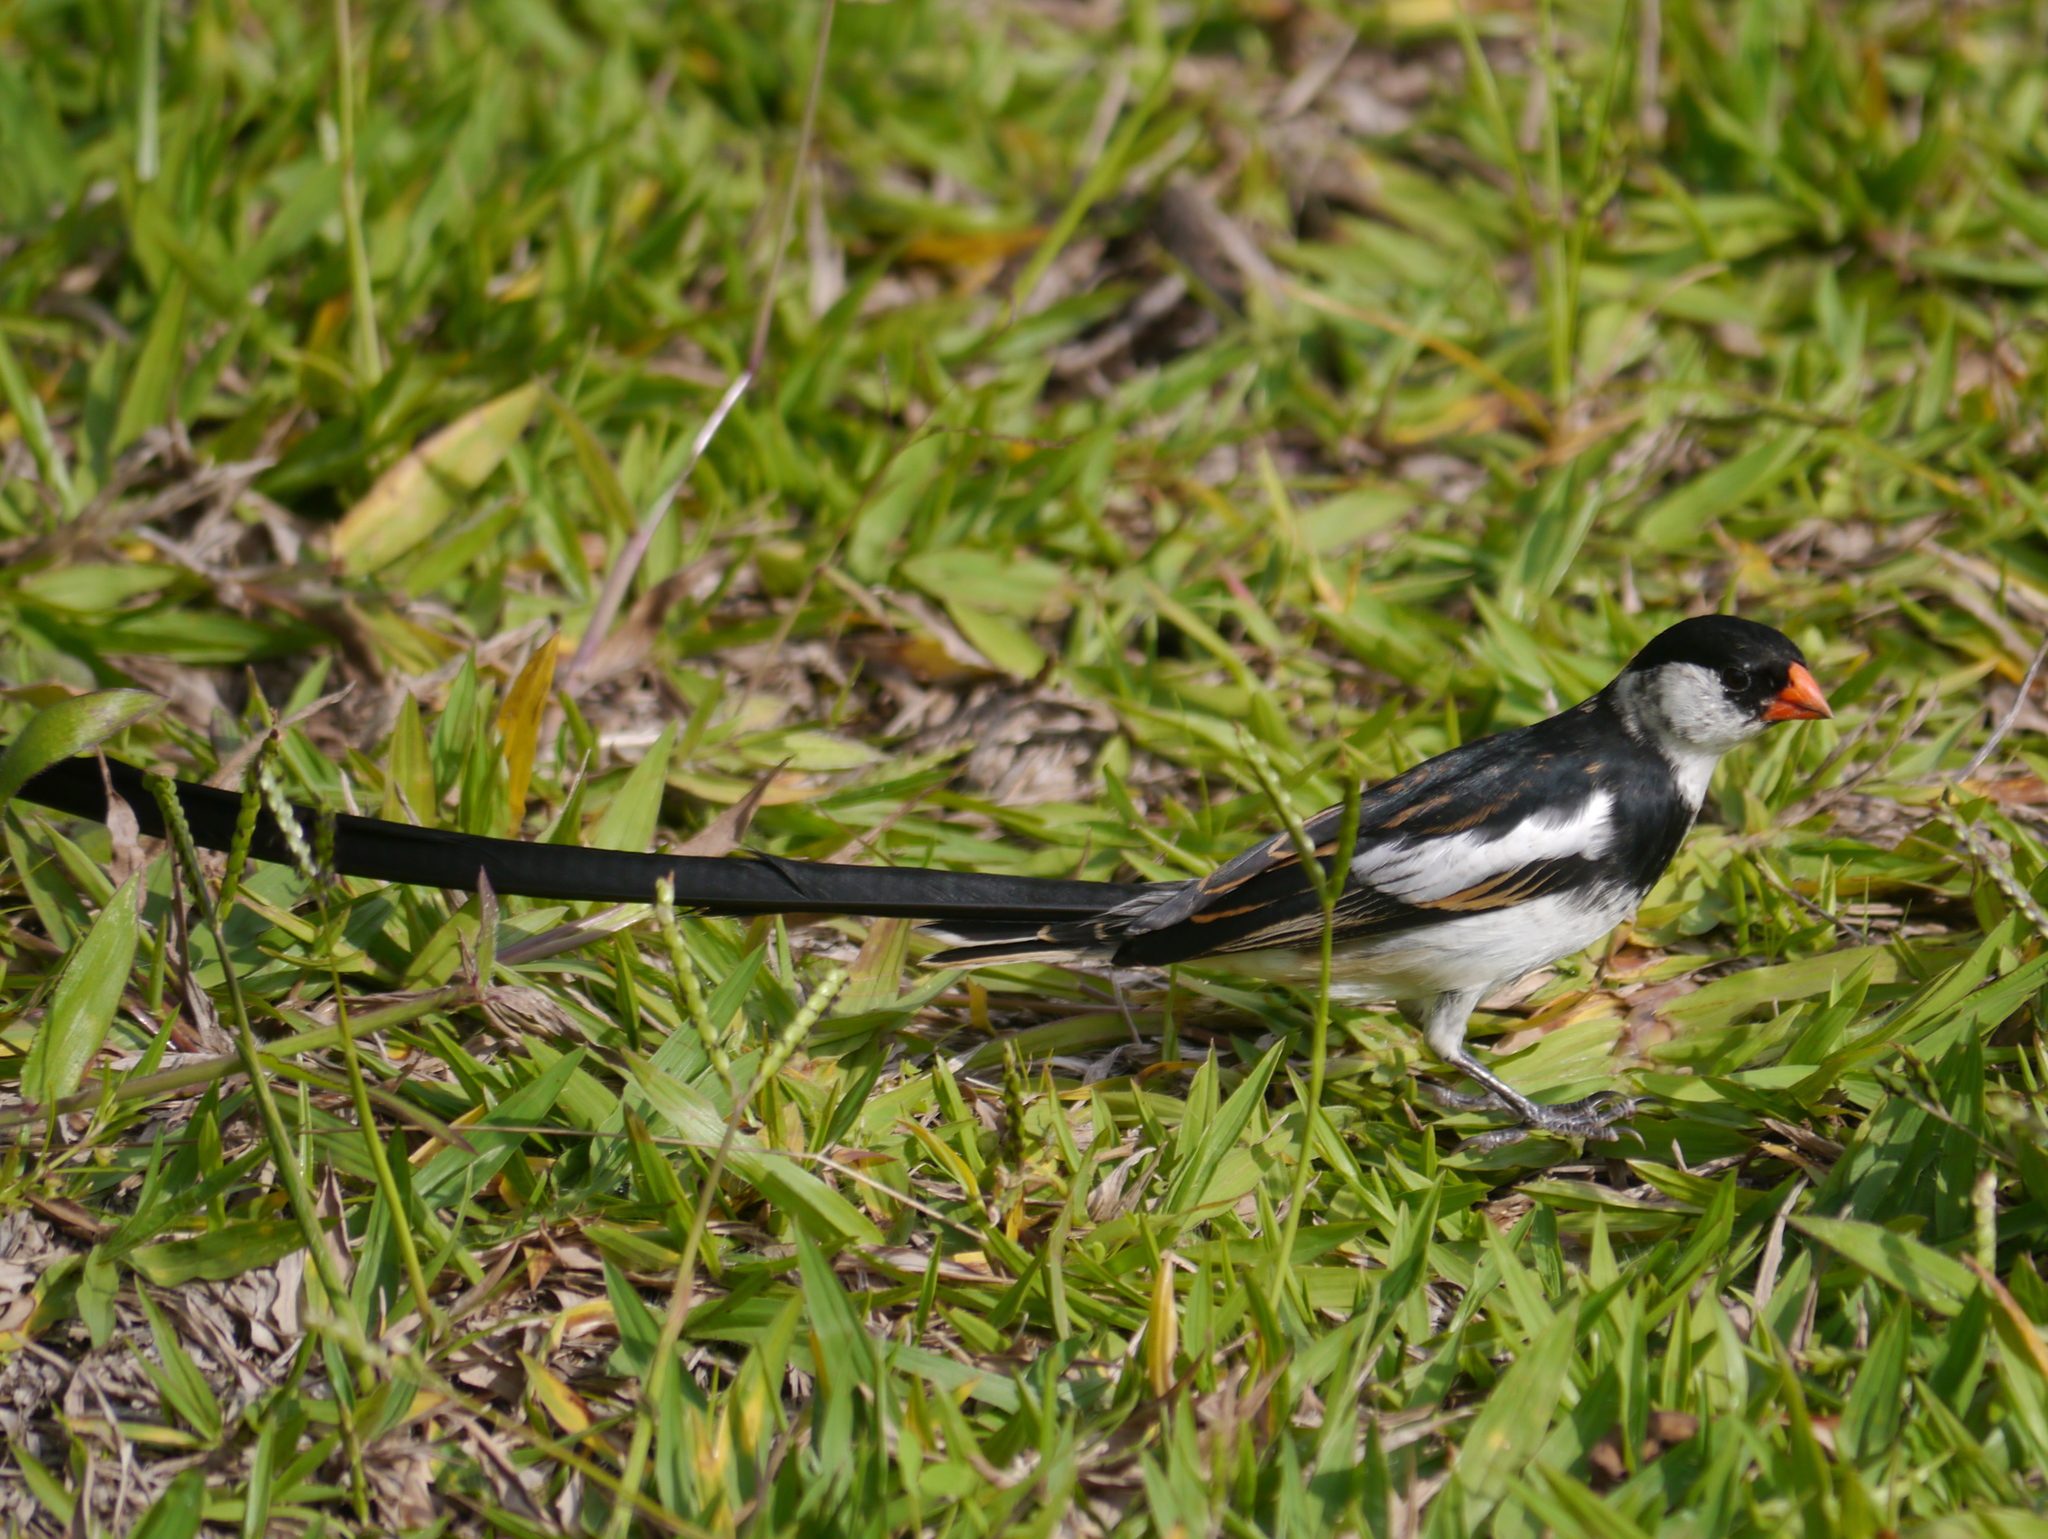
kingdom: Animalia
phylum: Chordata
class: Aves
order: Passeriformes
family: Viduidae
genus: Vidua
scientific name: Vidua macroura
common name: Pin-tailed whydah
